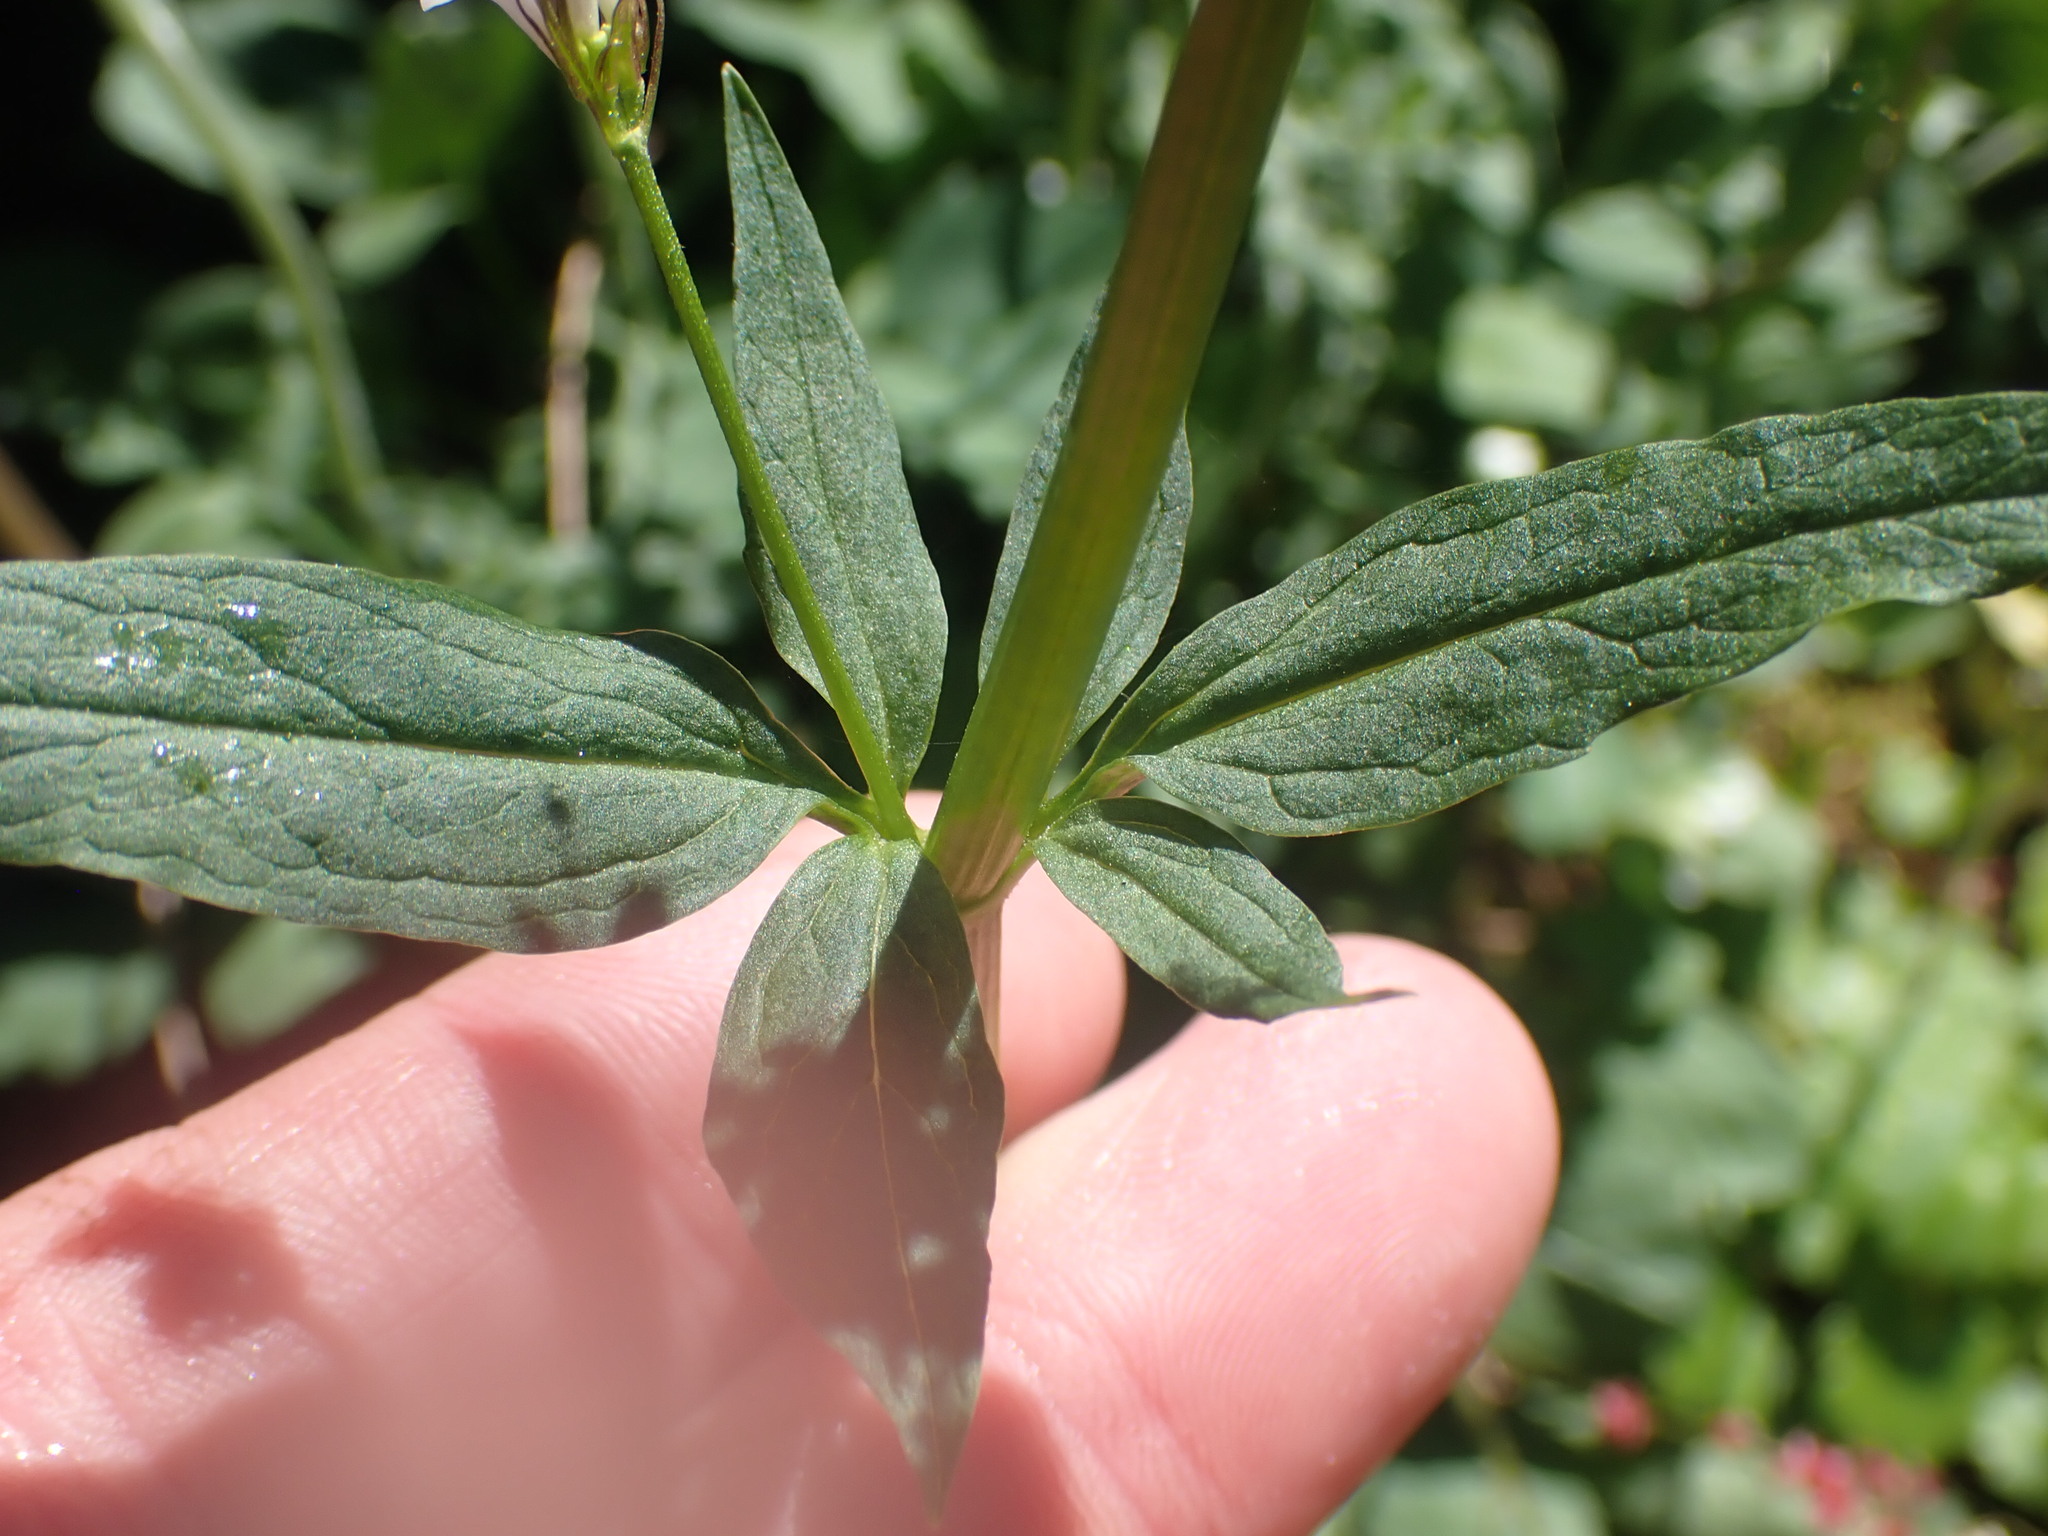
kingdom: Plantae
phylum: Tracheophyta
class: Magnoliopsida
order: Dipsacales
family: Caprifoliaceae
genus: Valeriana
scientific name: Valeriana sitchensis
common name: Pacific valerian
